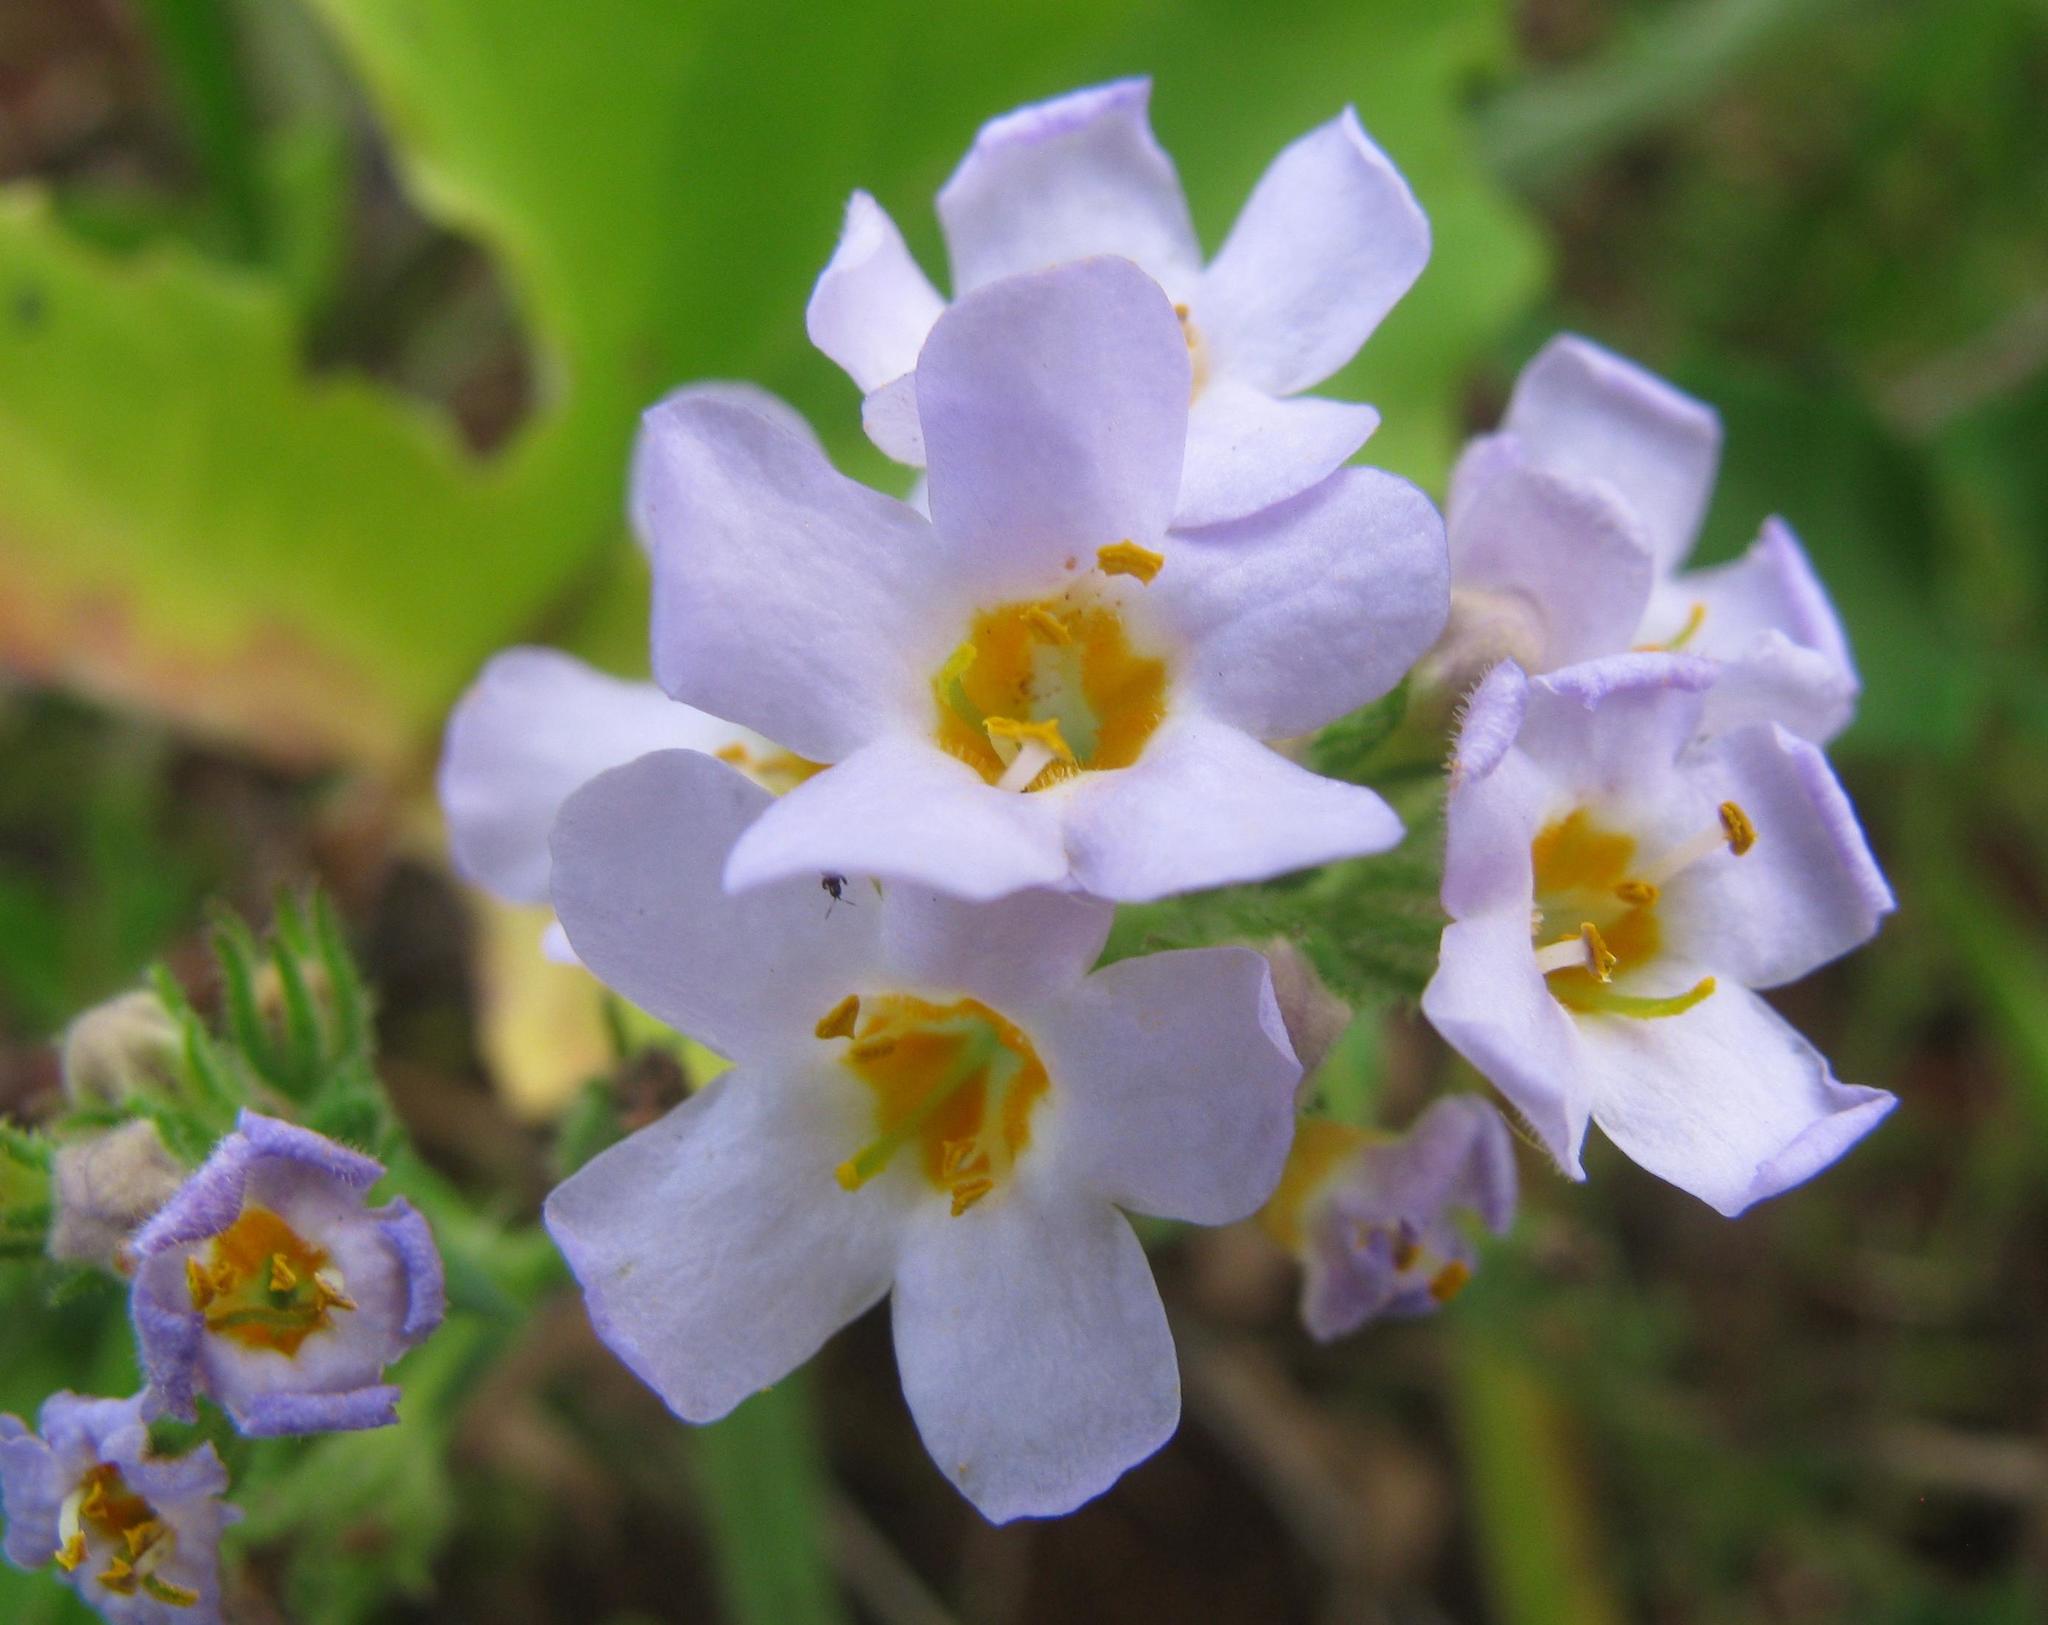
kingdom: Plantae
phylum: Tracheophyta
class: Magnoliopsida
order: Lamiales
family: Scrophulariaceae
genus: Chaenostoma
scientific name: Chaenostoma campanulatum
